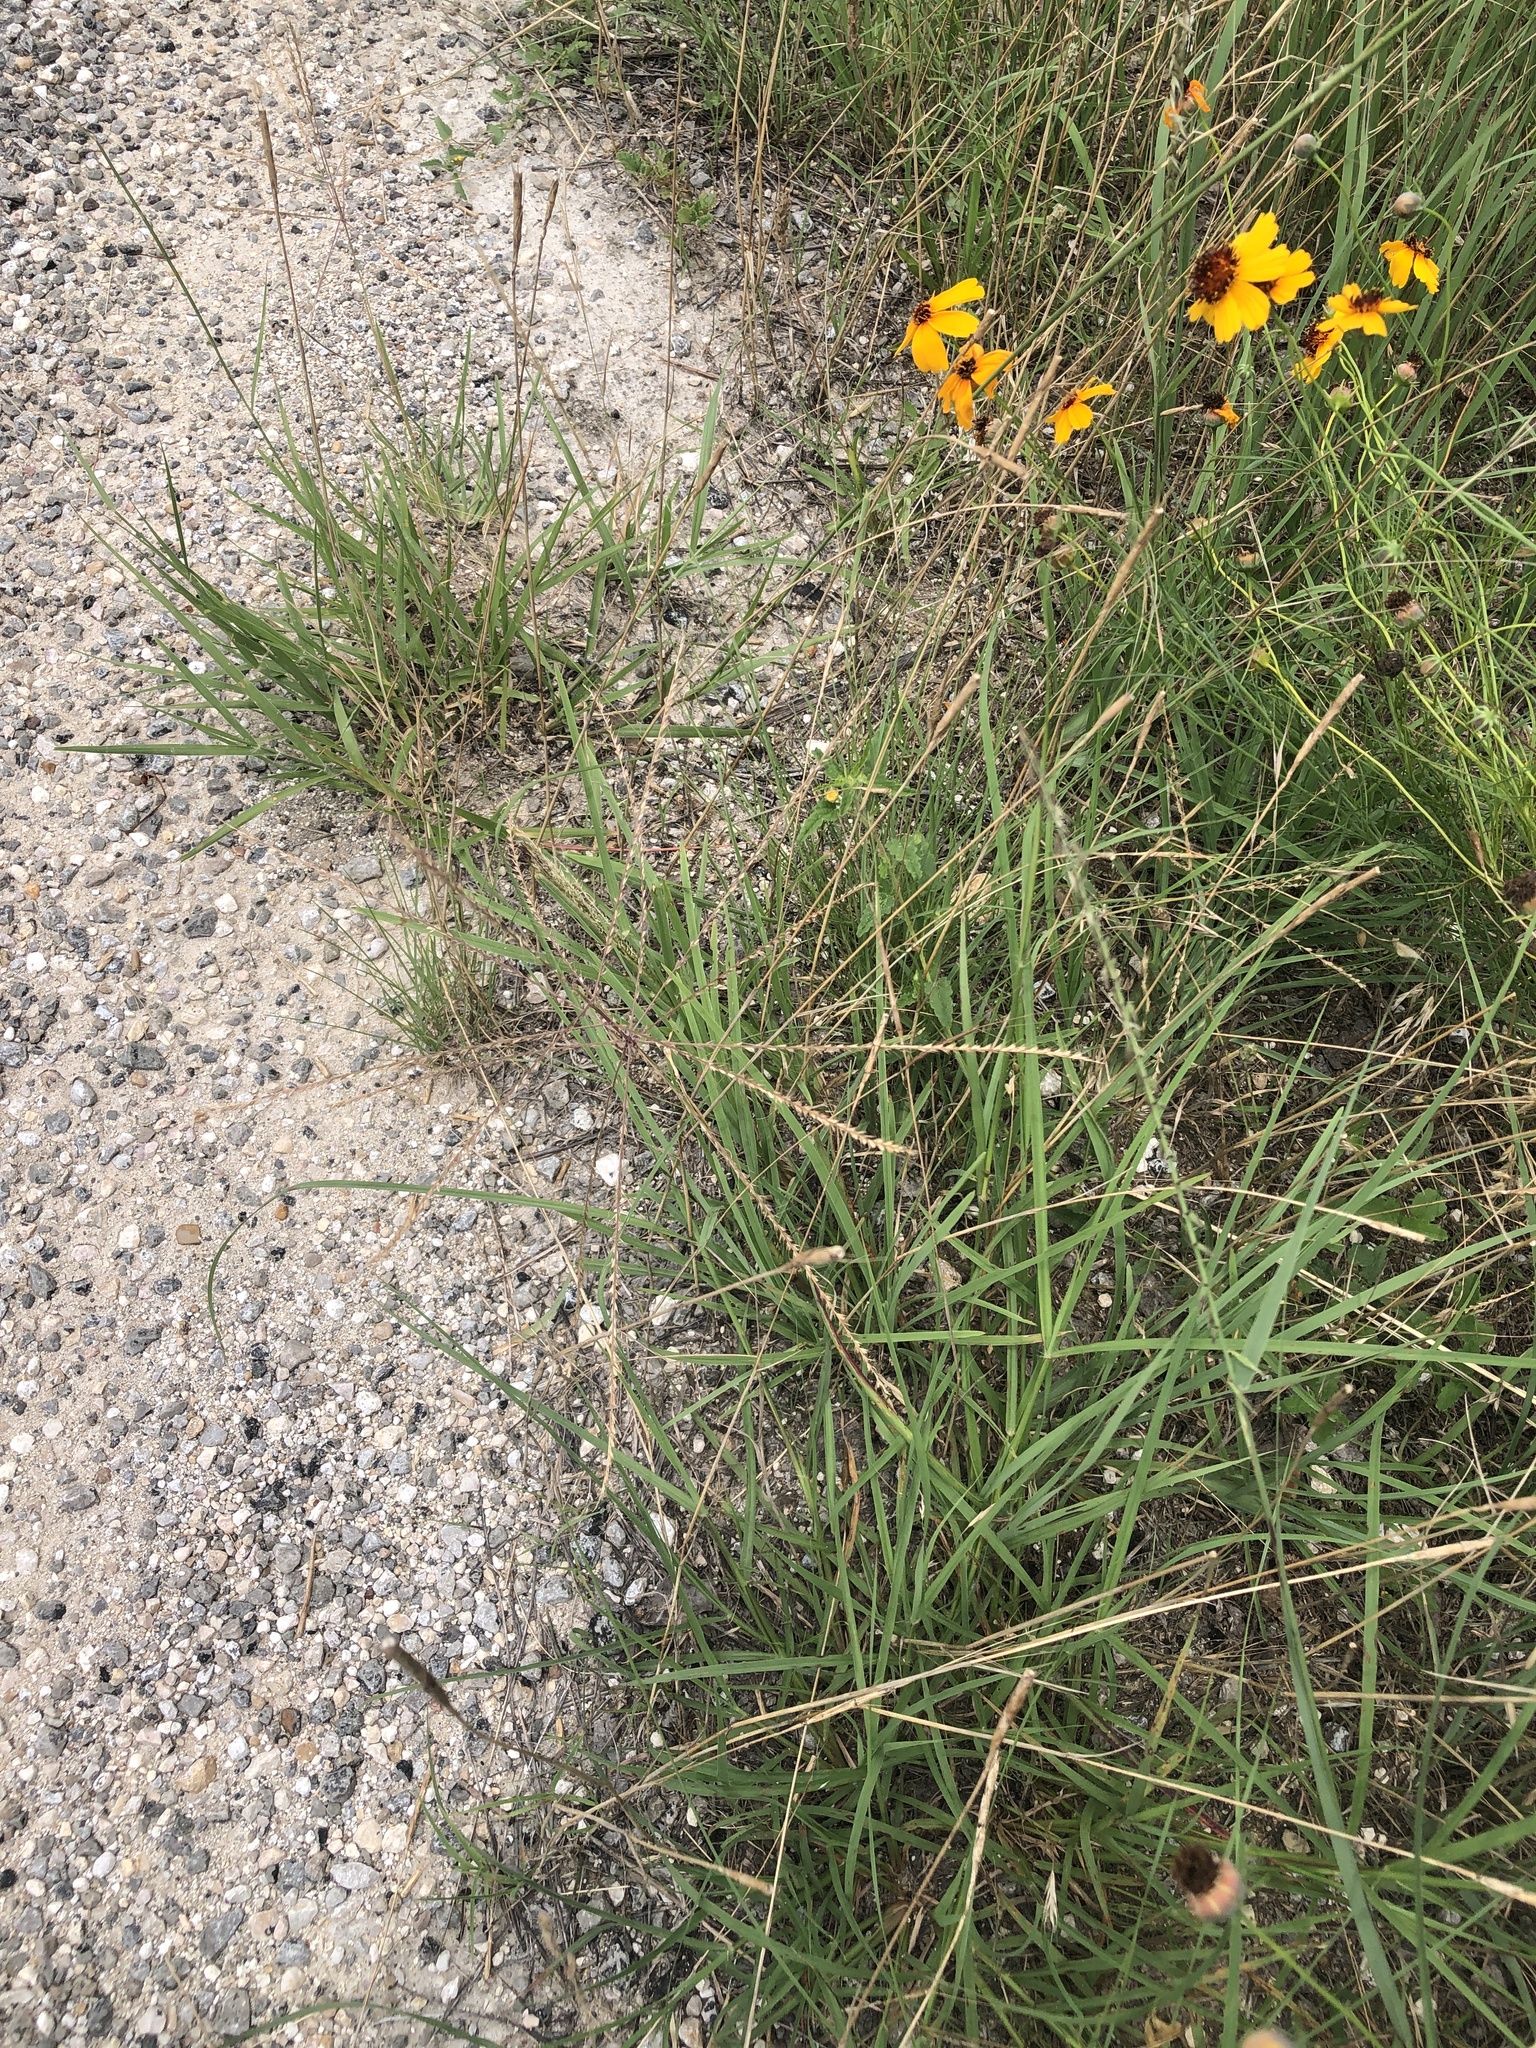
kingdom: Plantae
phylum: Tracheophyta
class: Liliopsida
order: Poales
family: Poaceae
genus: Chloris
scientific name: Chloris verticillata
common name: Tumble windmill grass
